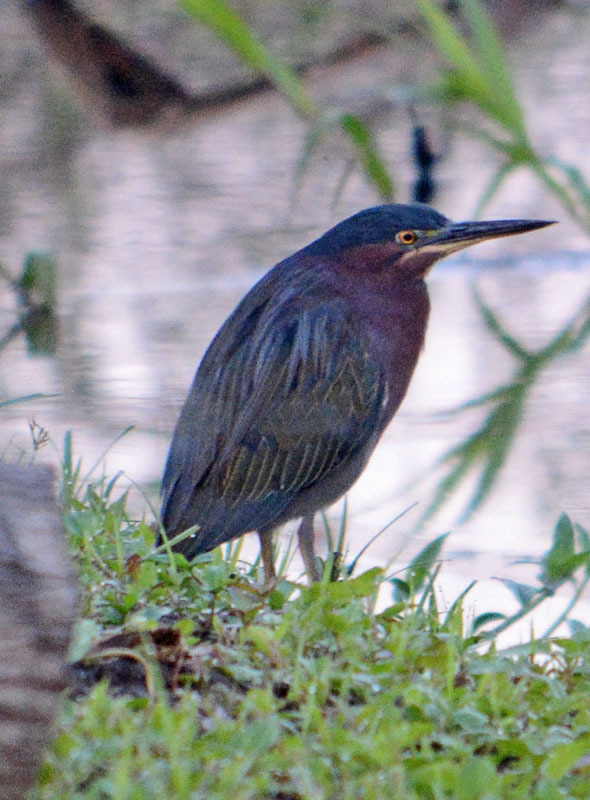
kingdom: Animalia
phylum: Chordata
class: Aves
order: Pelecaniformes
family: Ardeidae
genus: Butorides
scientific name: Butorides virescens
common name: Green heron
